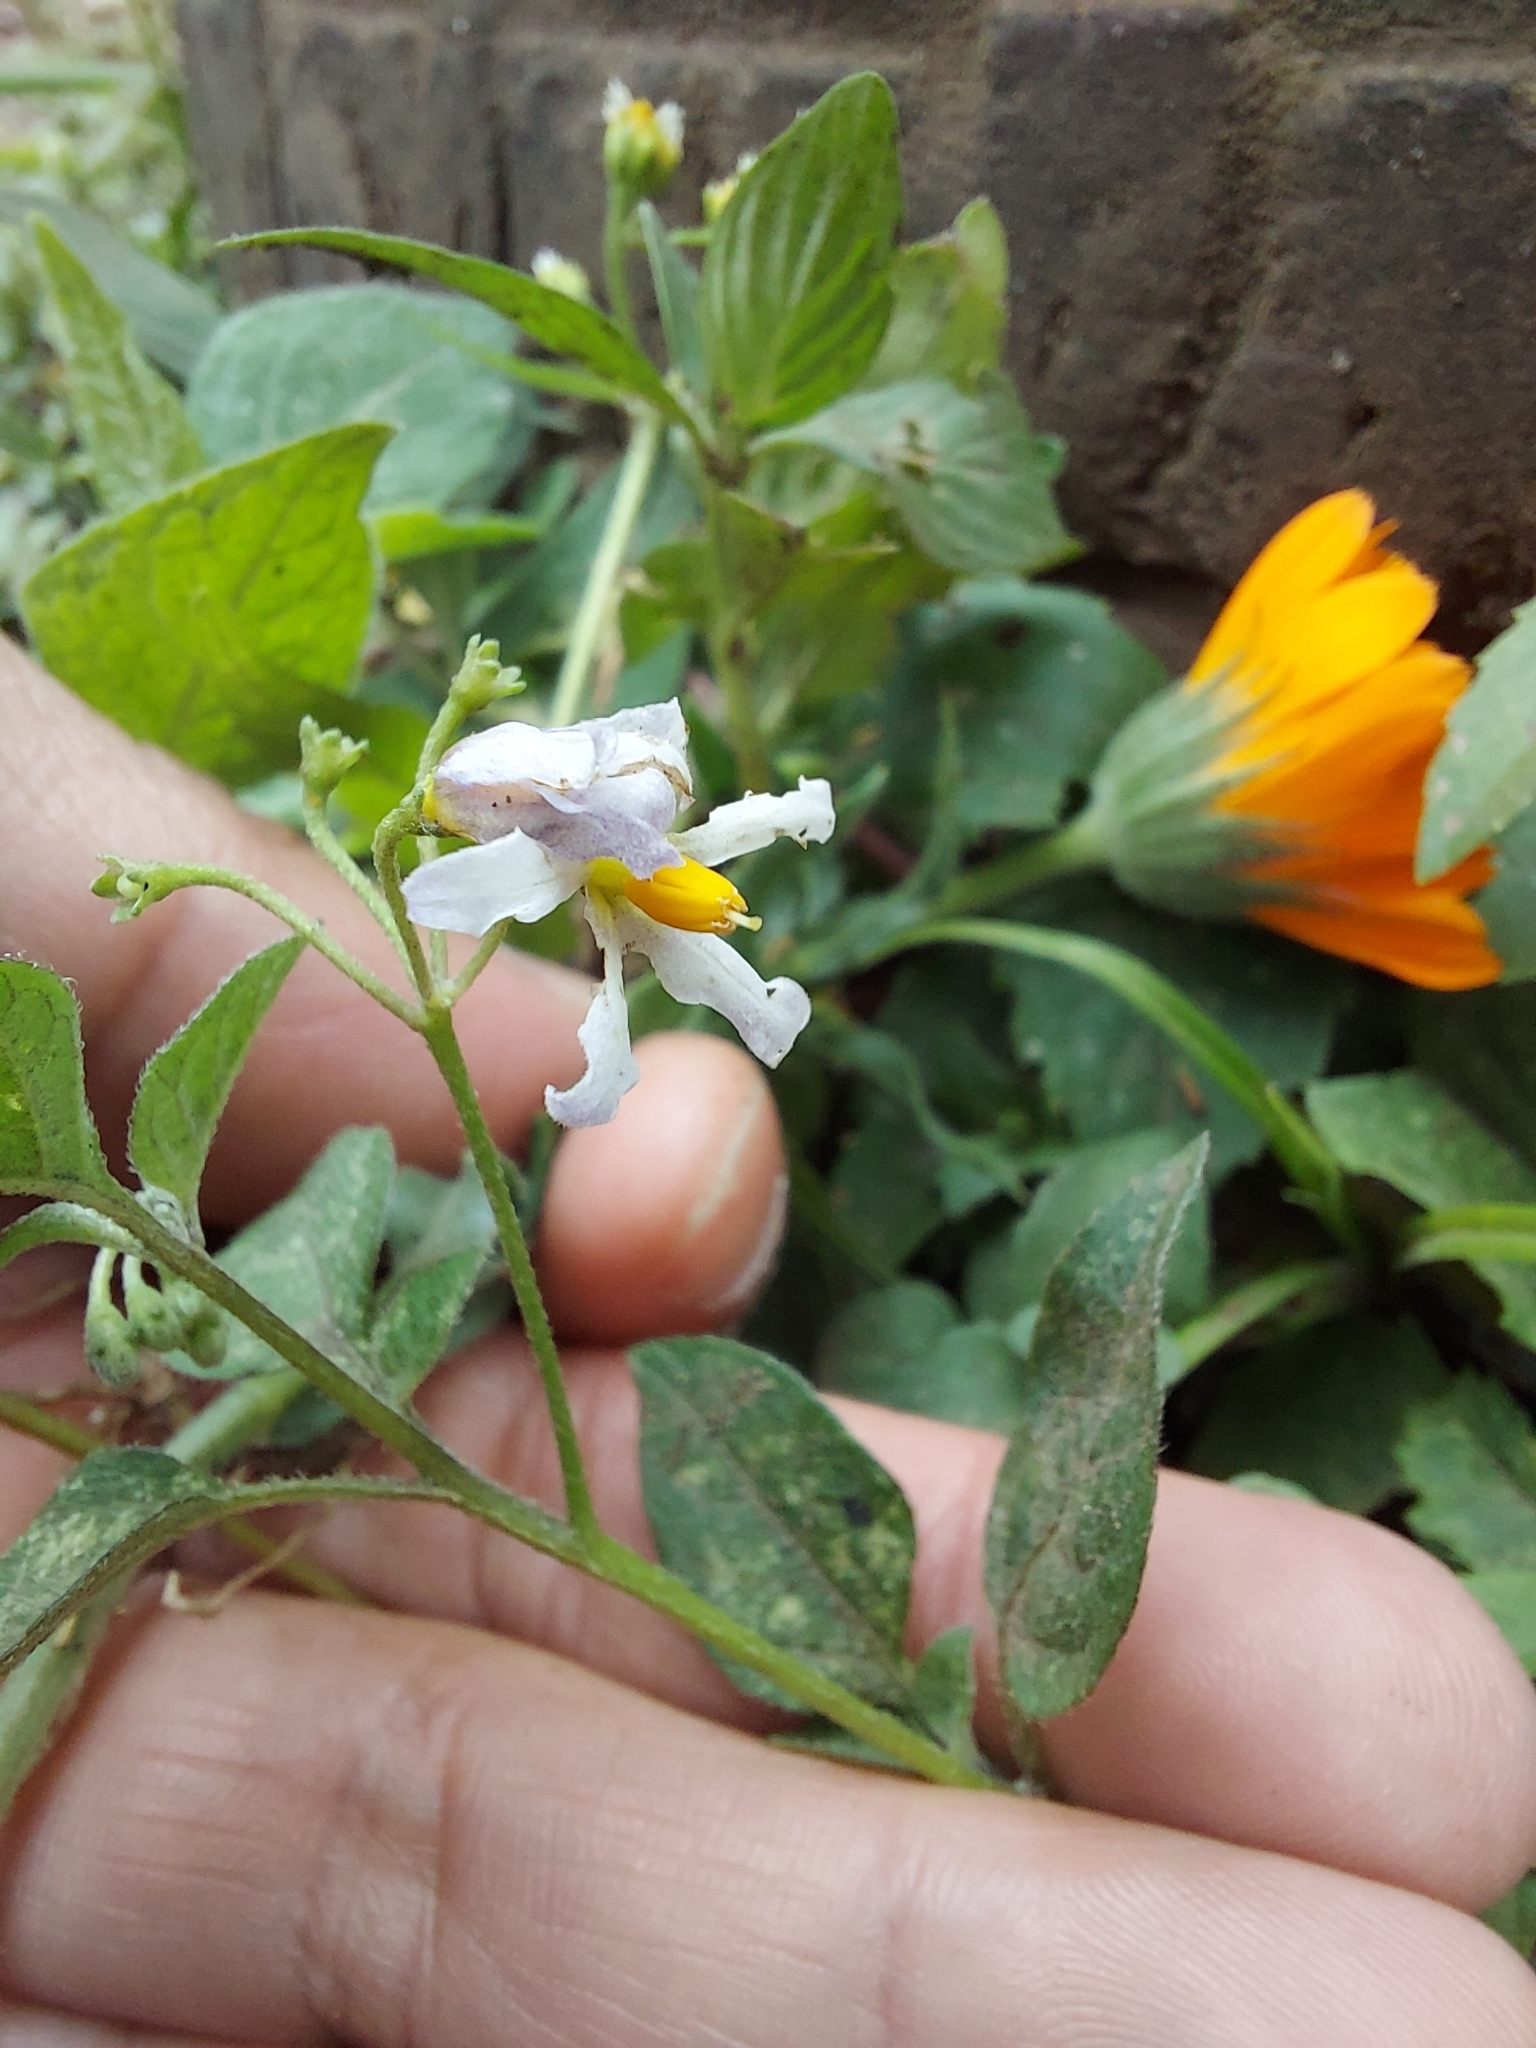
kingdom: Plantae
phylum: Tracheophyta
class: Magnoliopsida
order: Solanales
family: Solanaceae
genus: Solanum
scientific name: Solanum douglasii
